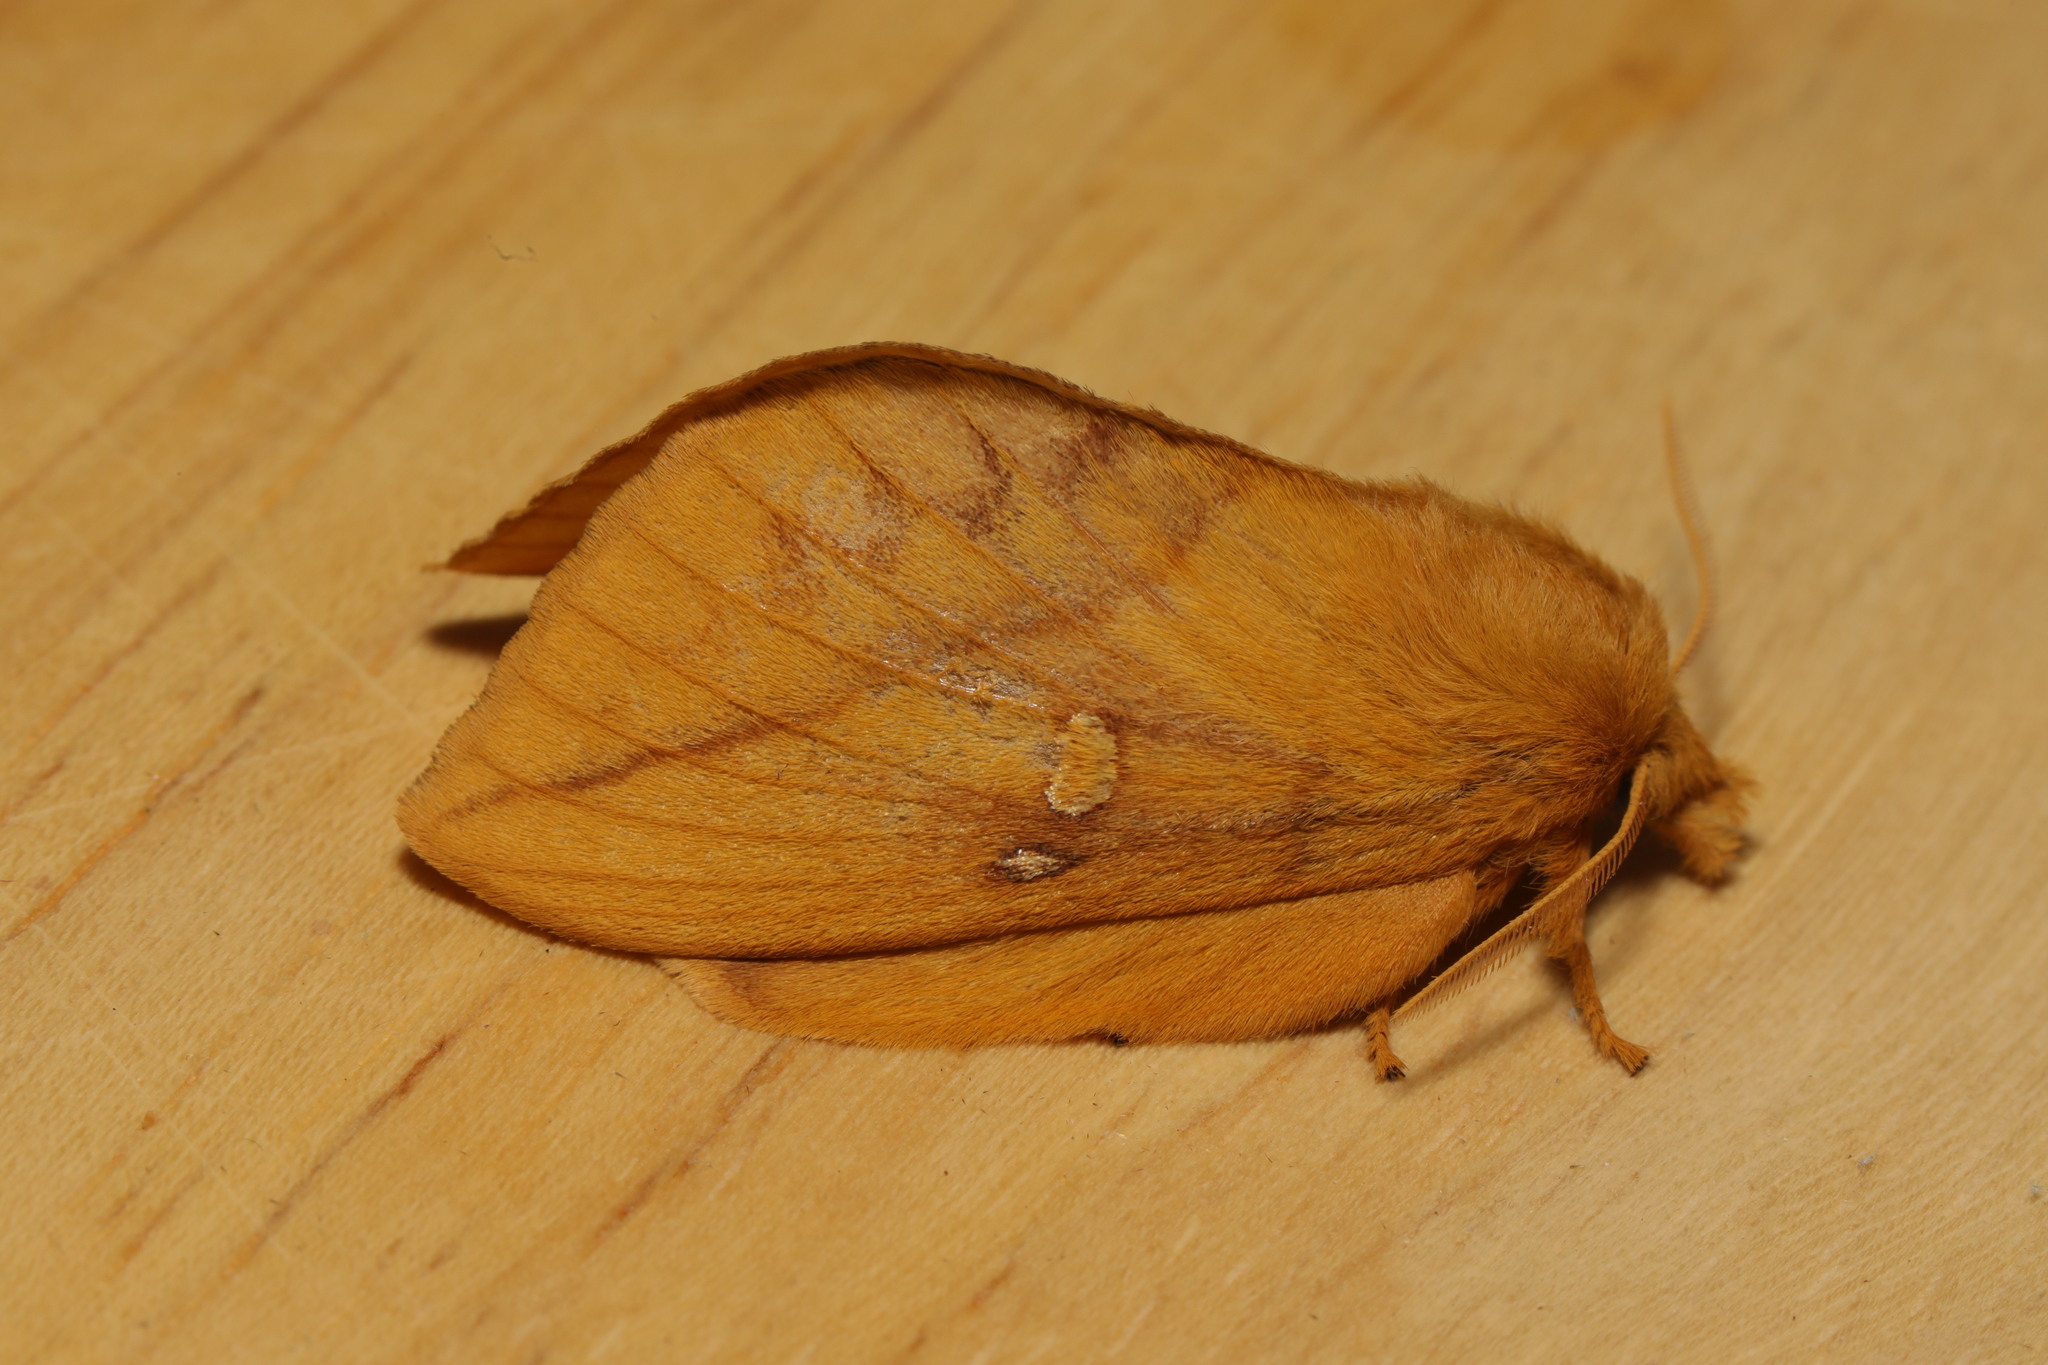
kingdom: Animalia
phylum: Arthropoda
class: Insecta
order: Lepidoptera
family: Lasiocampidae
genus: Euthrix
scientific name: Euthrix potatoria
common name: Drinker
